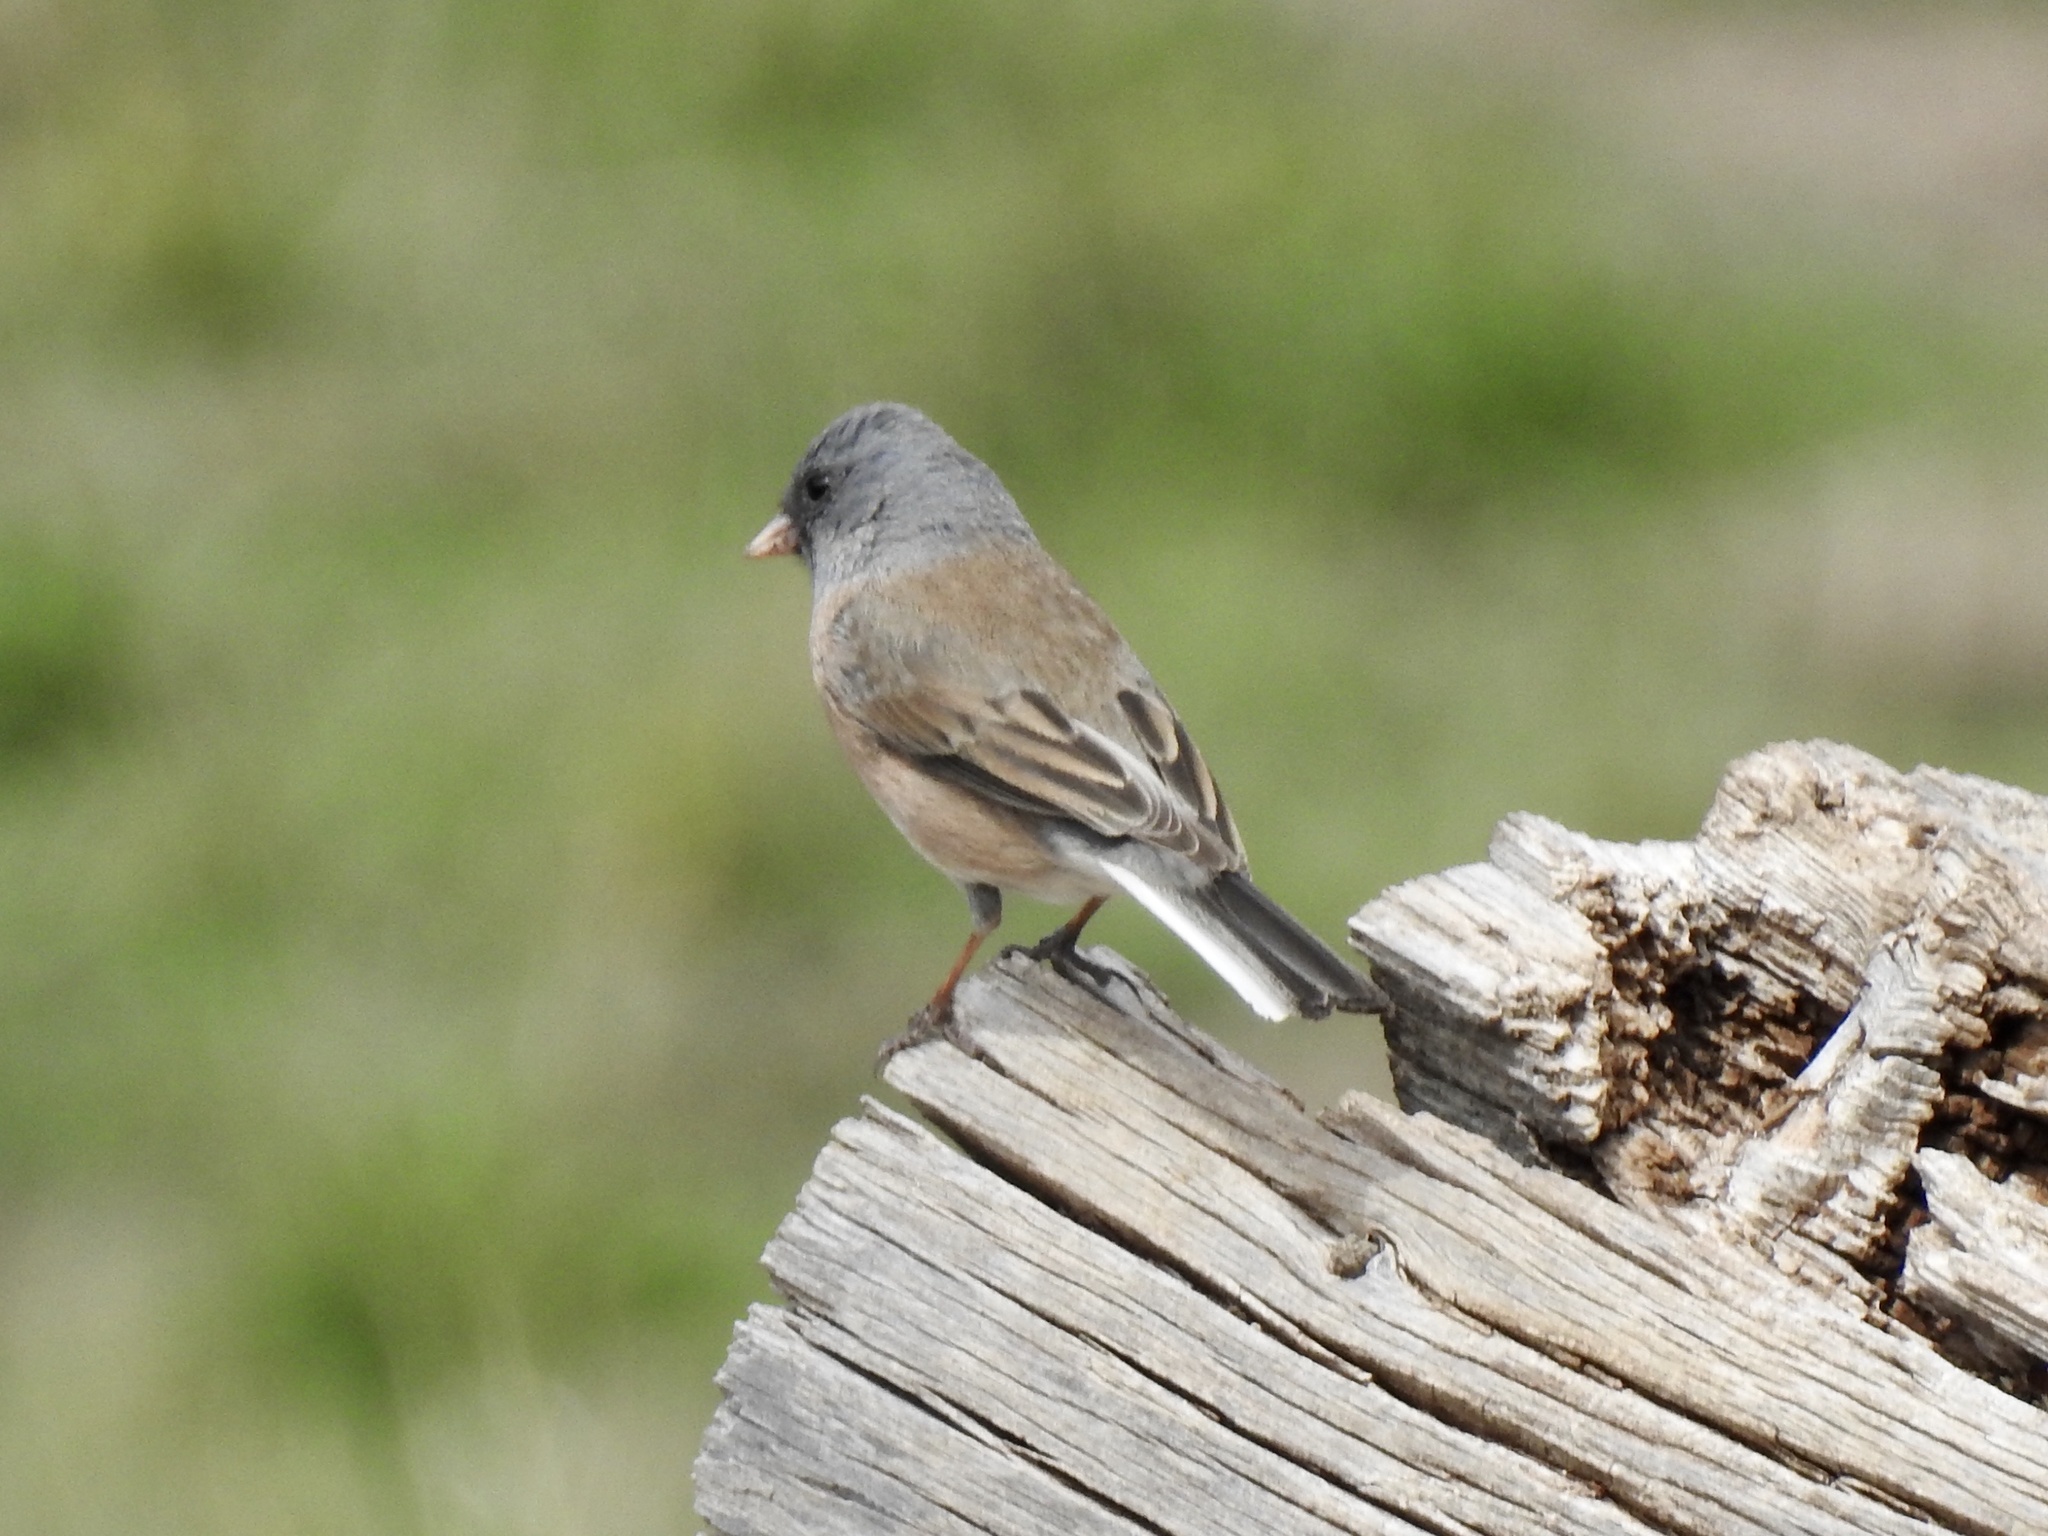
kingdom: Animalia
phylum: Chordata
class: Aves
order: Passeriformes
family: Passerellidae
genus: Junco
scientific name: Junco hyemalis
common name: Dark-eyed junco
